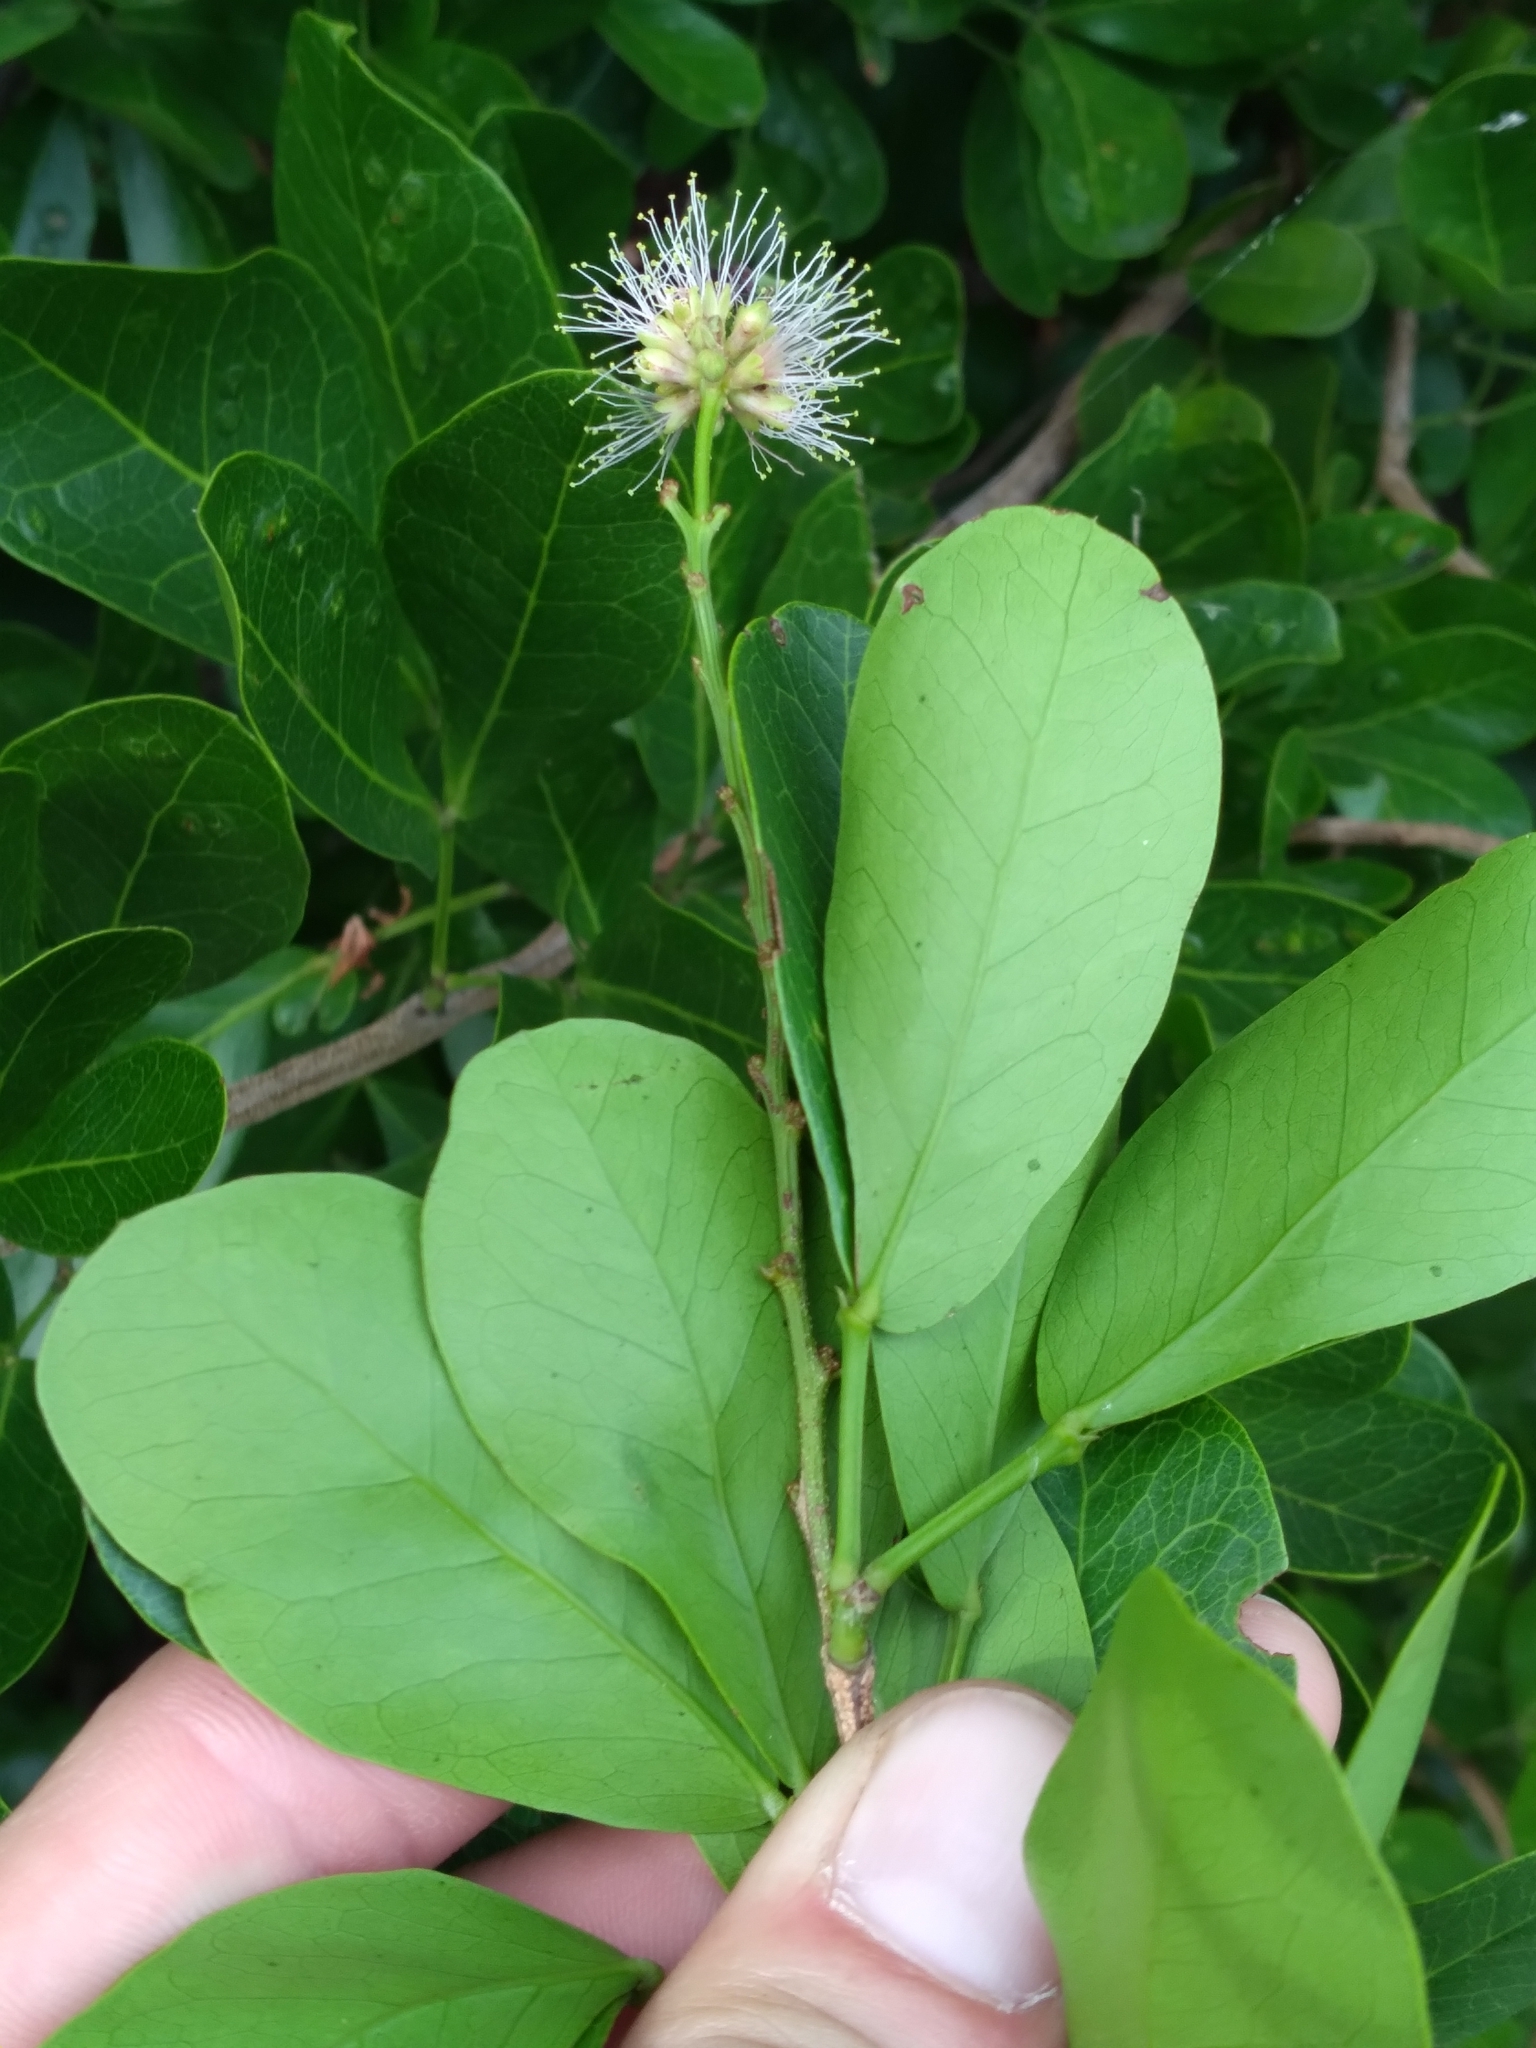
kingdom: Plantae
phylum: Tracheophyta
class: Magnoliopsida
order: Fabales
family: Fabaceae
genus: Pithecellobium
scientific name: Pithecellobium keyense
